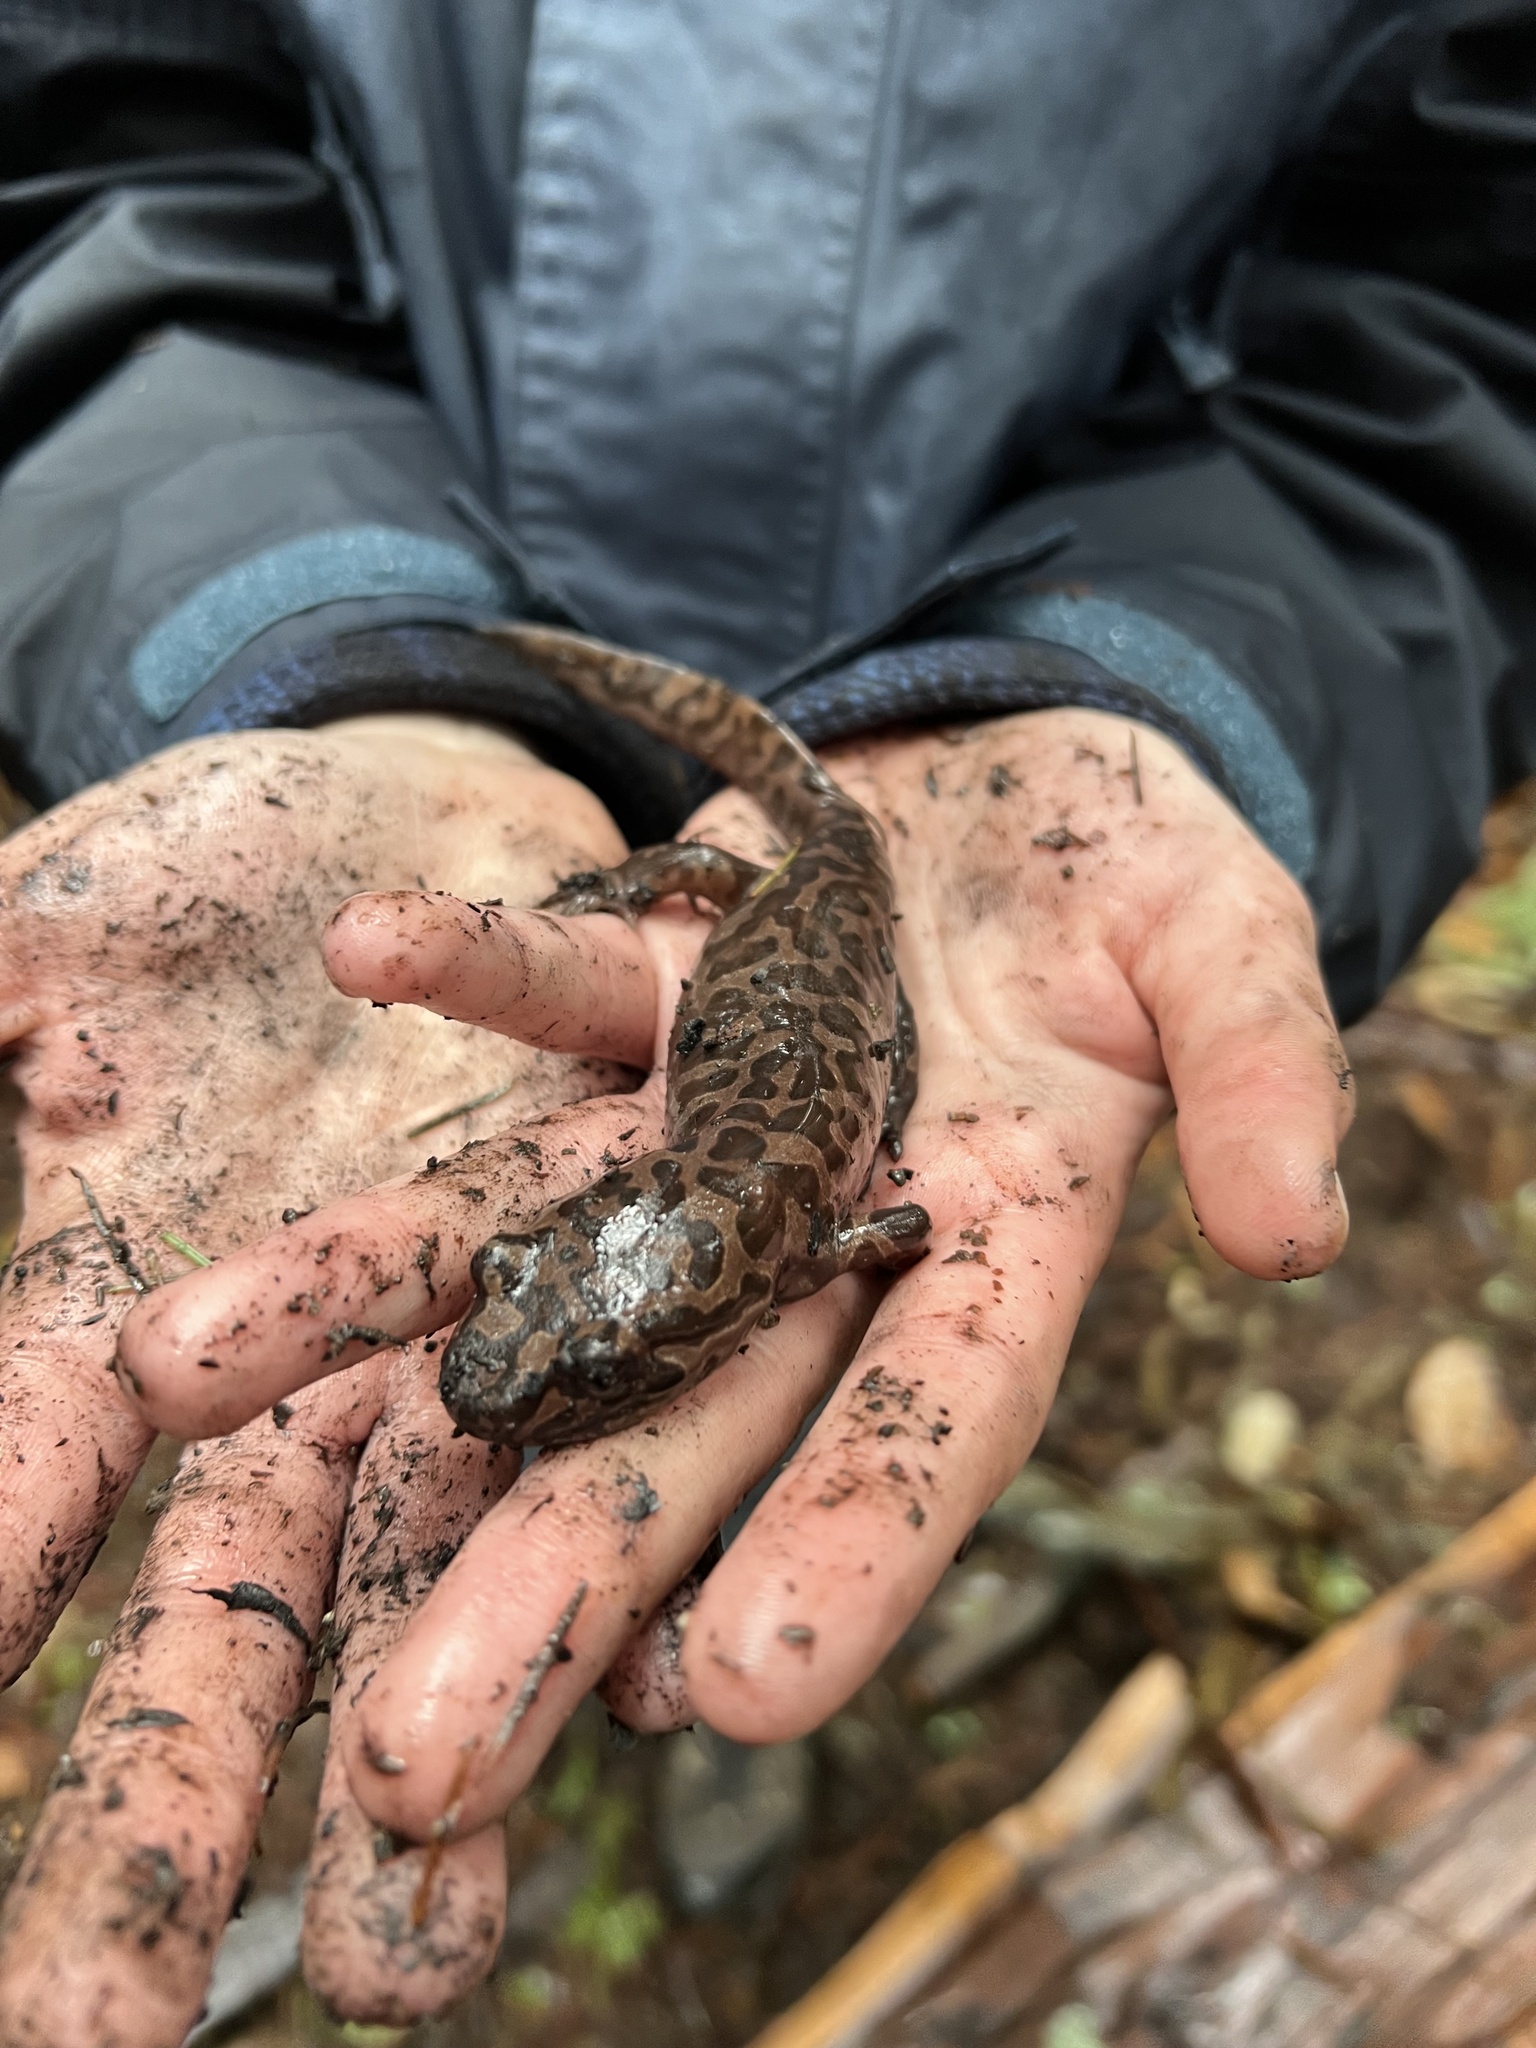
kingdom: Animalia
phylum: Chordata
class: Amphibia
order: Caudata
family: Ambystomatidae
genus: Dicamptodon
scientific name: Dicamptodon ensatus
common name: California giant salamander
